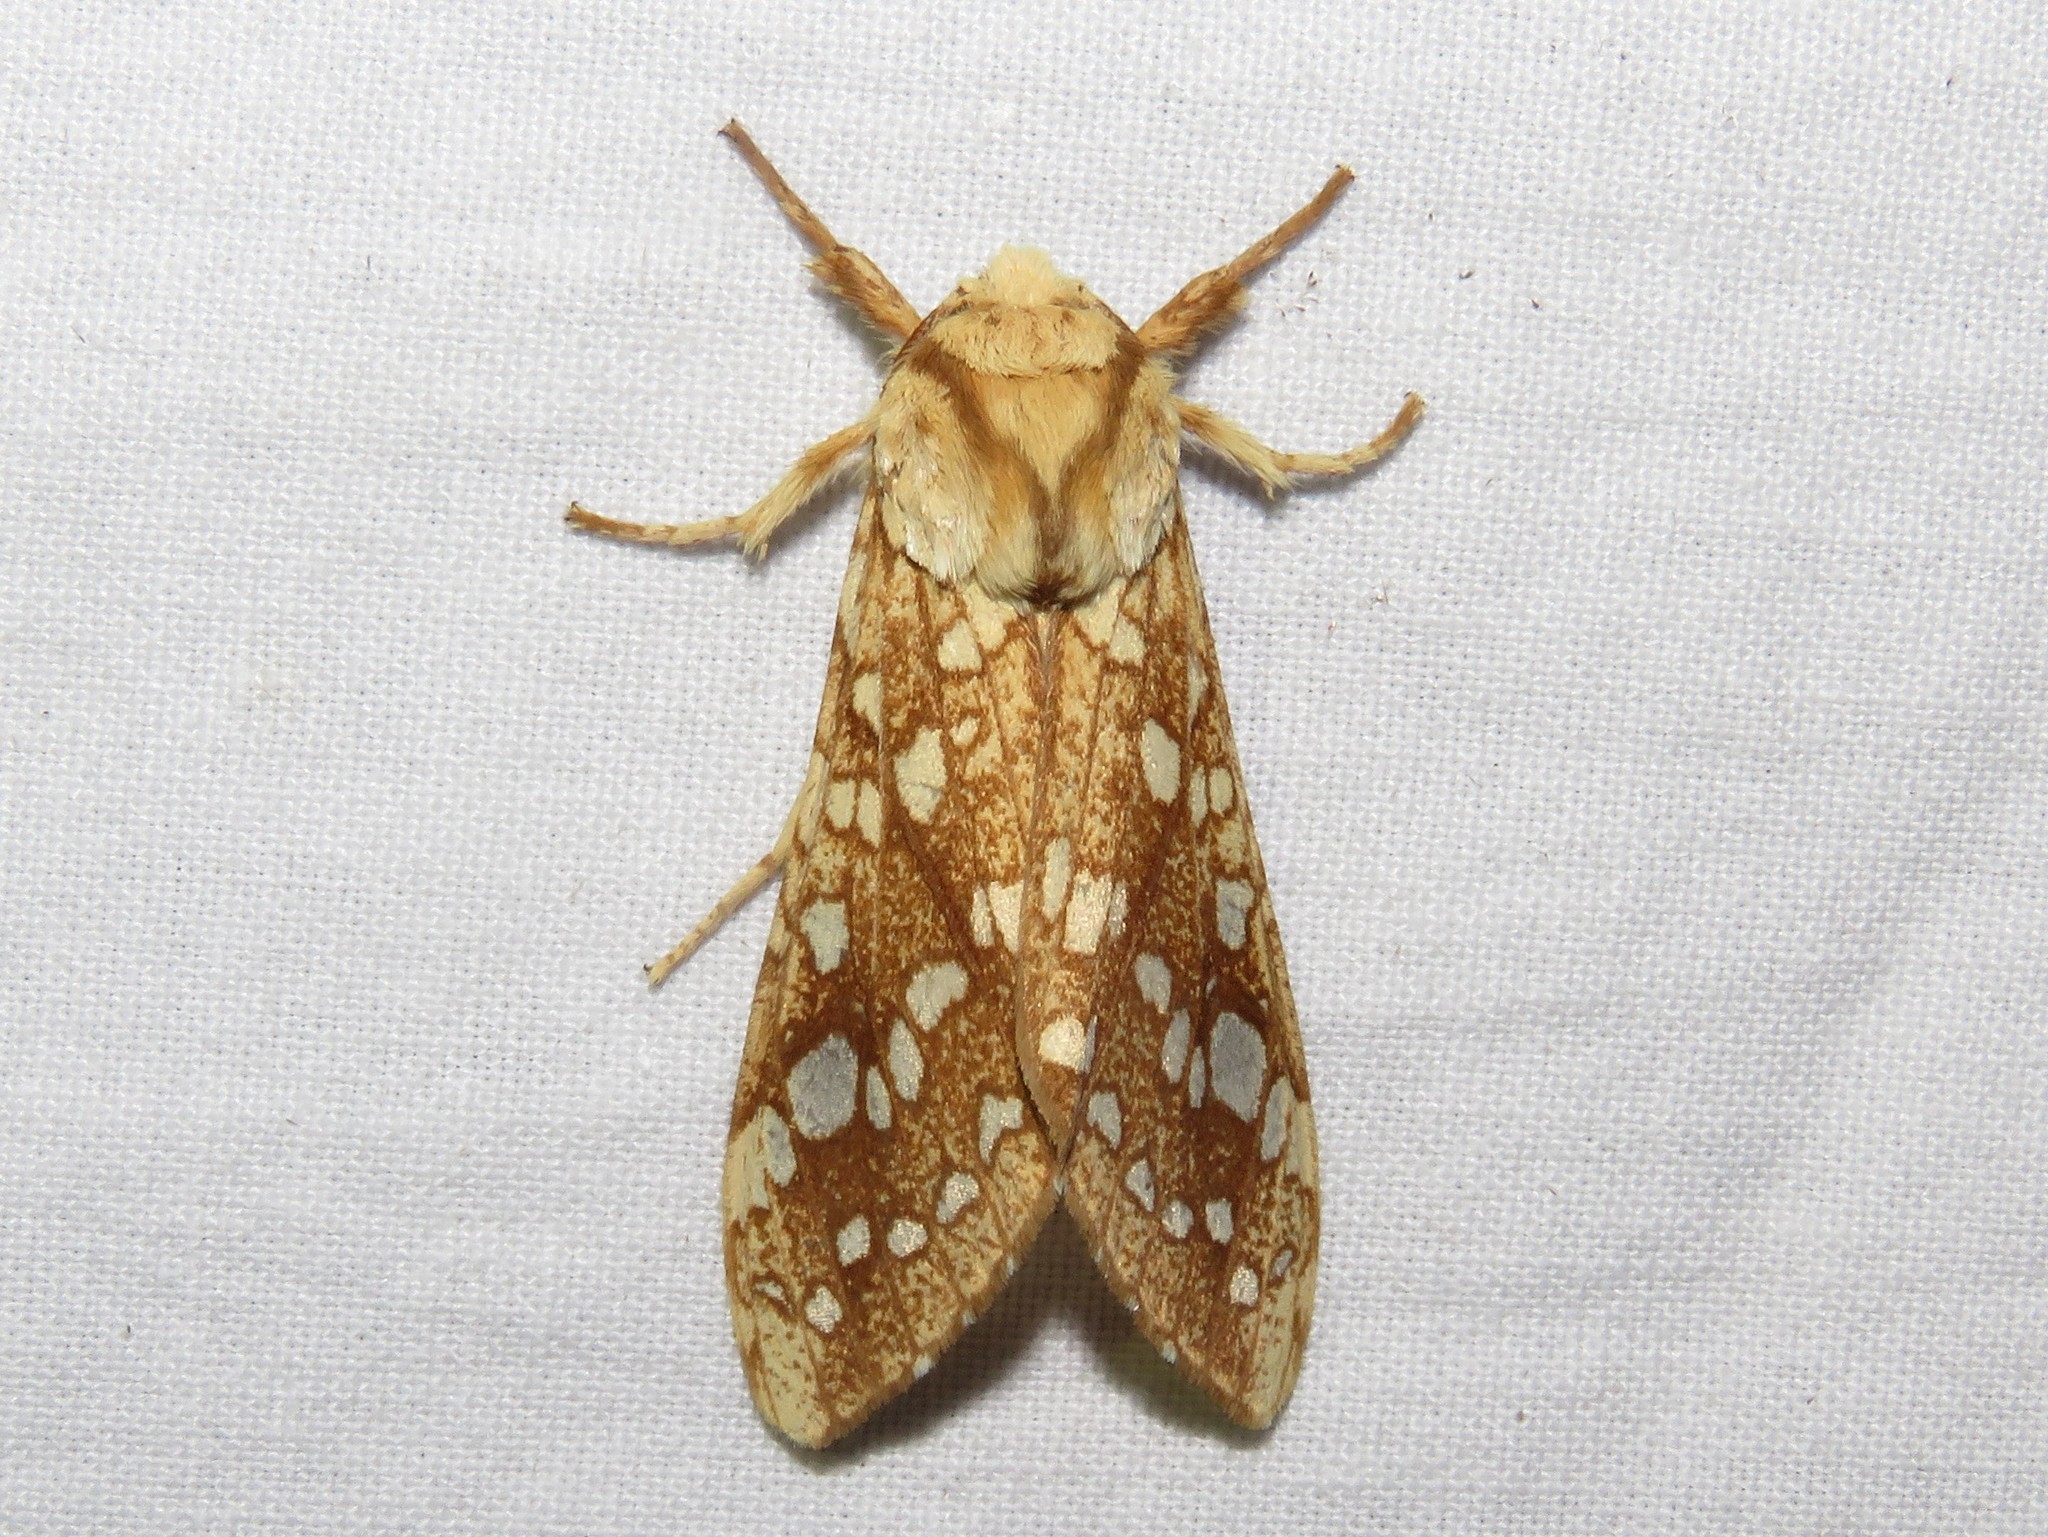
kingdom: Animalia
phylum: Arthropoda
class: Insecta
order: Lepidoptera
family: Erebidae
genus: Lophocampa
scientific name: Lophocampa caryae
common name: Hickory tussock moth
